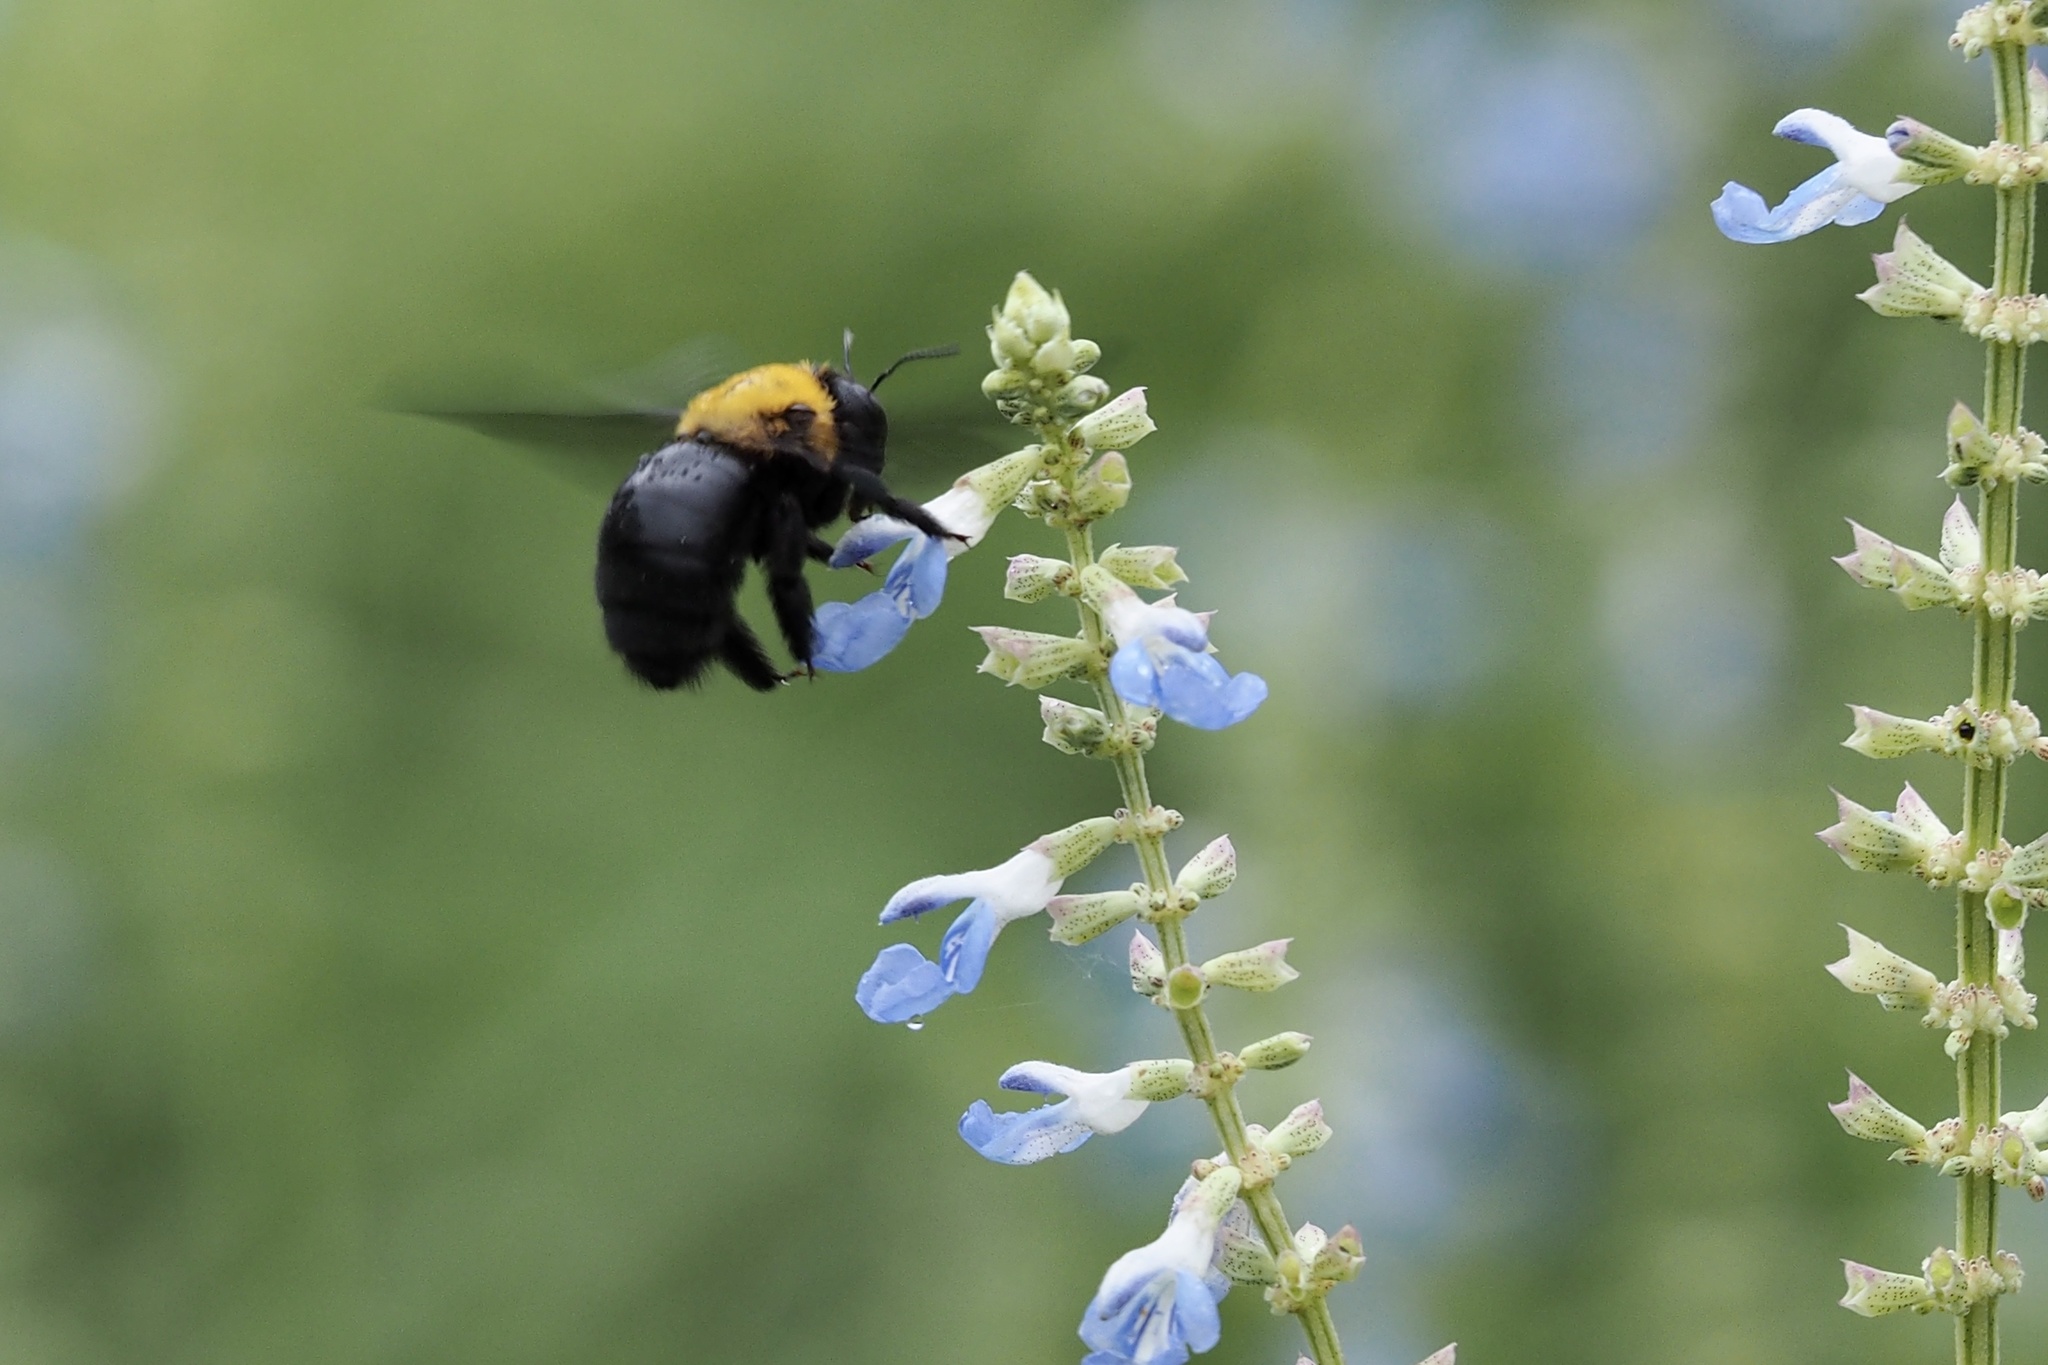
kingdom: Animalia
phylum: Arthropoda
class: Insecta
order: Hymenoptera
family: Apidae
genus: Xylocopa
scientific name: Xylocopa appendiculata
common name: Japanese carpenter bee
